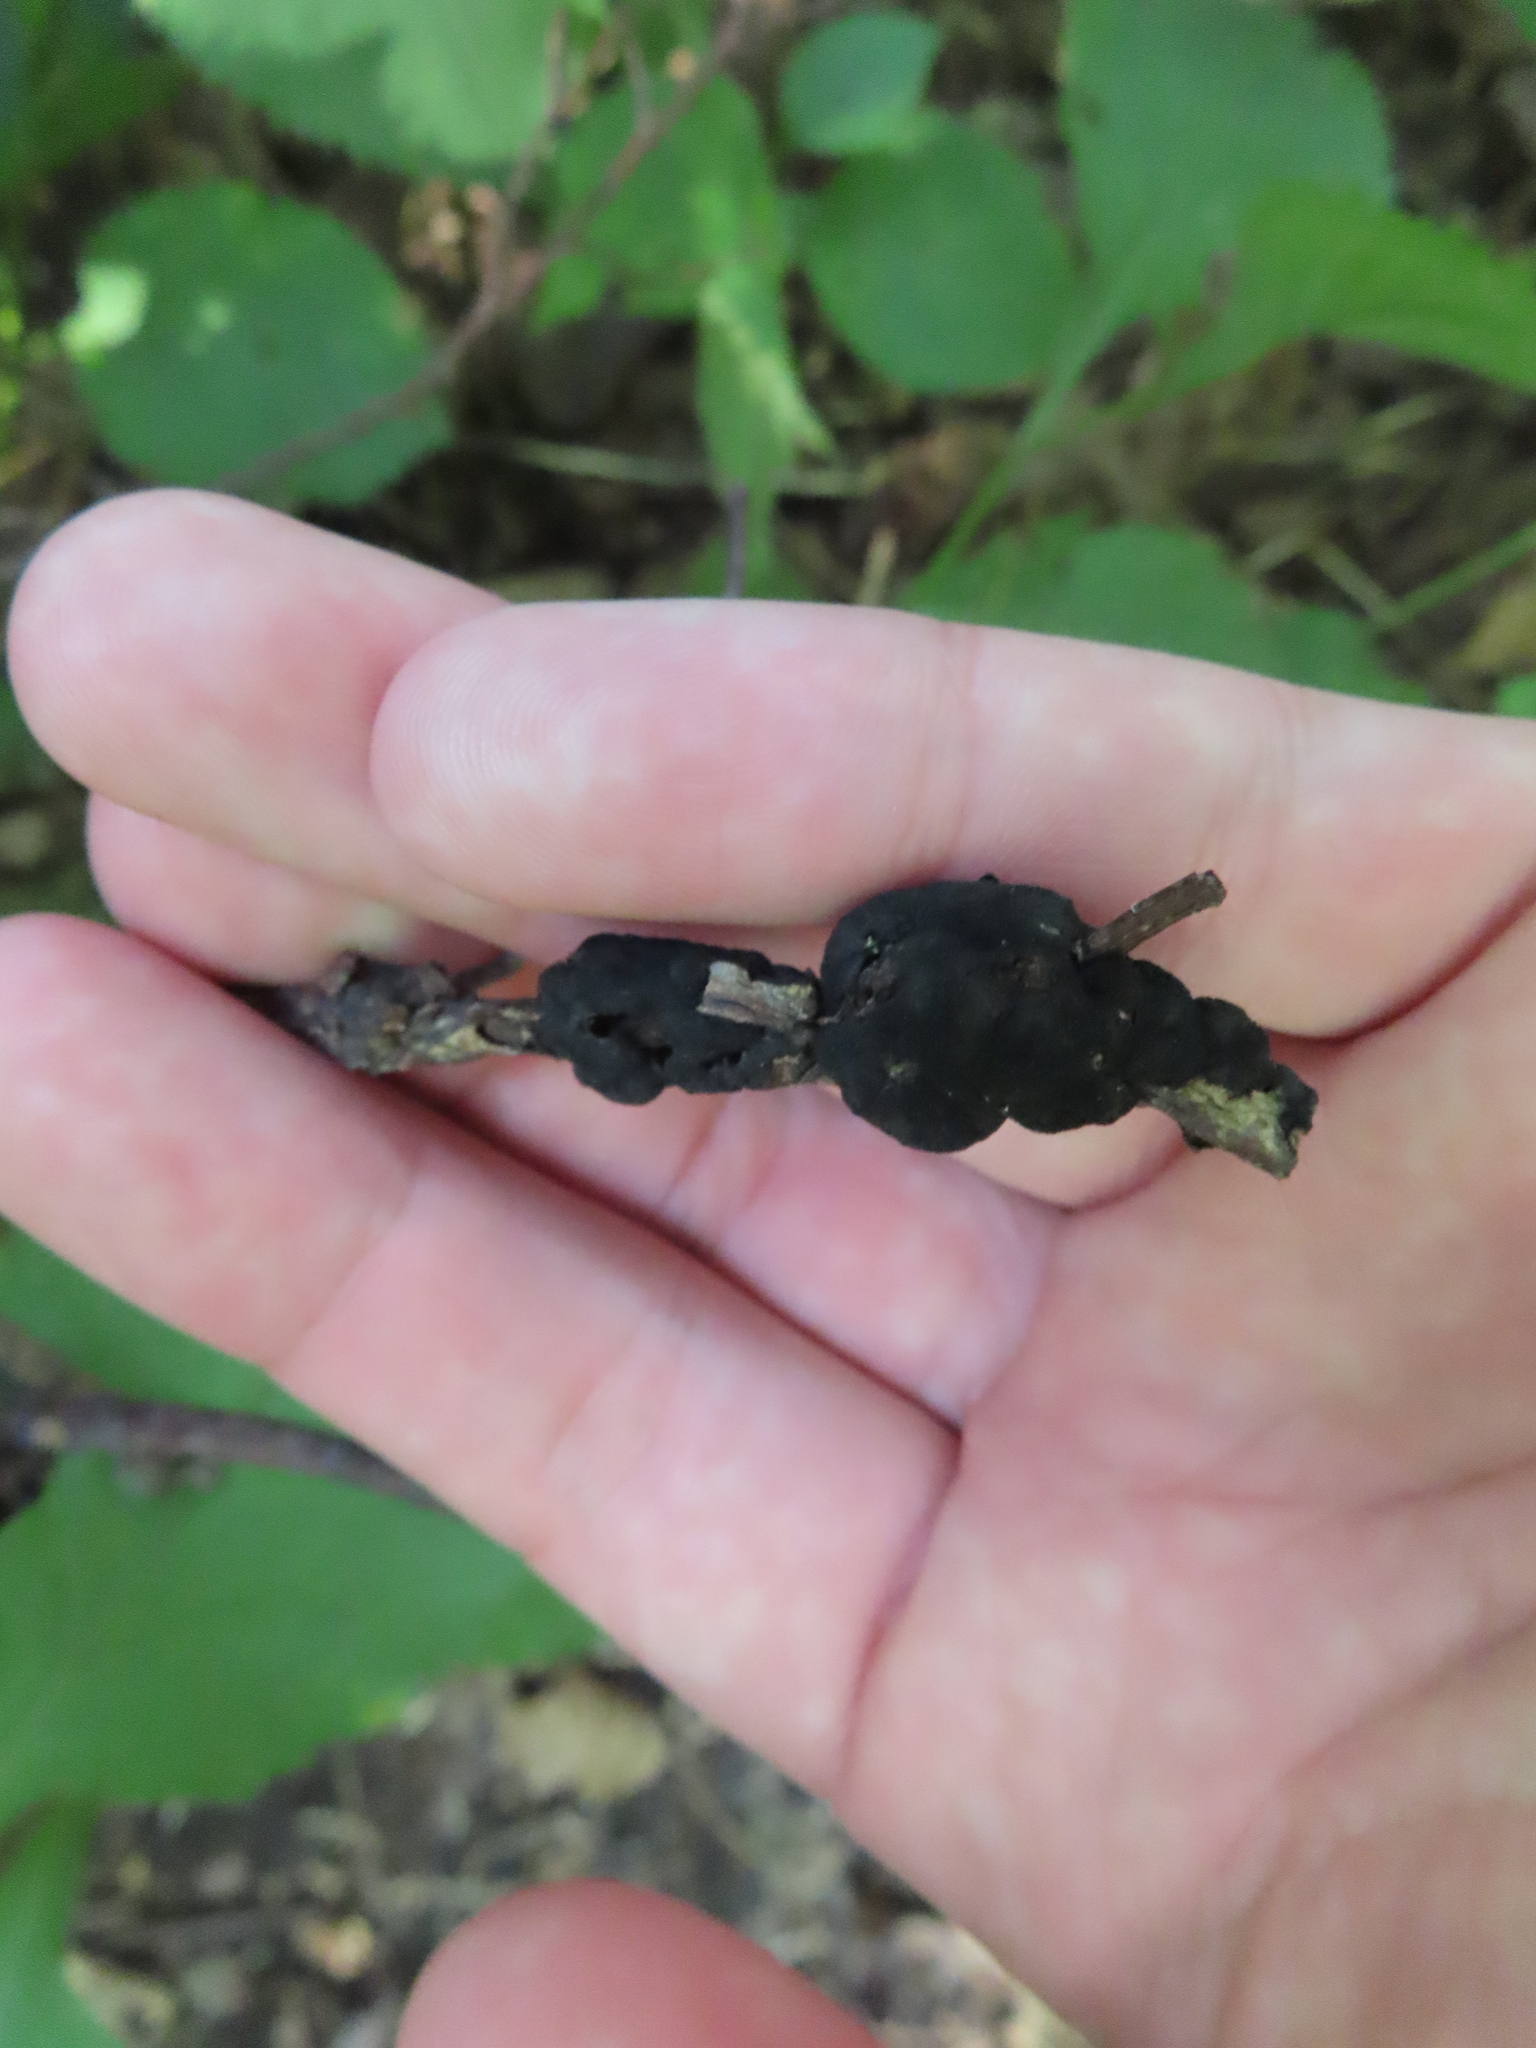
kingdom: Fungi
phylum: Ascomycota
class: Dothideomycetes
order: Venturiales
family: Venturiaceae
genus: Apiosporina
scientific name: Apiosporina morbosa
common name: Black knot
